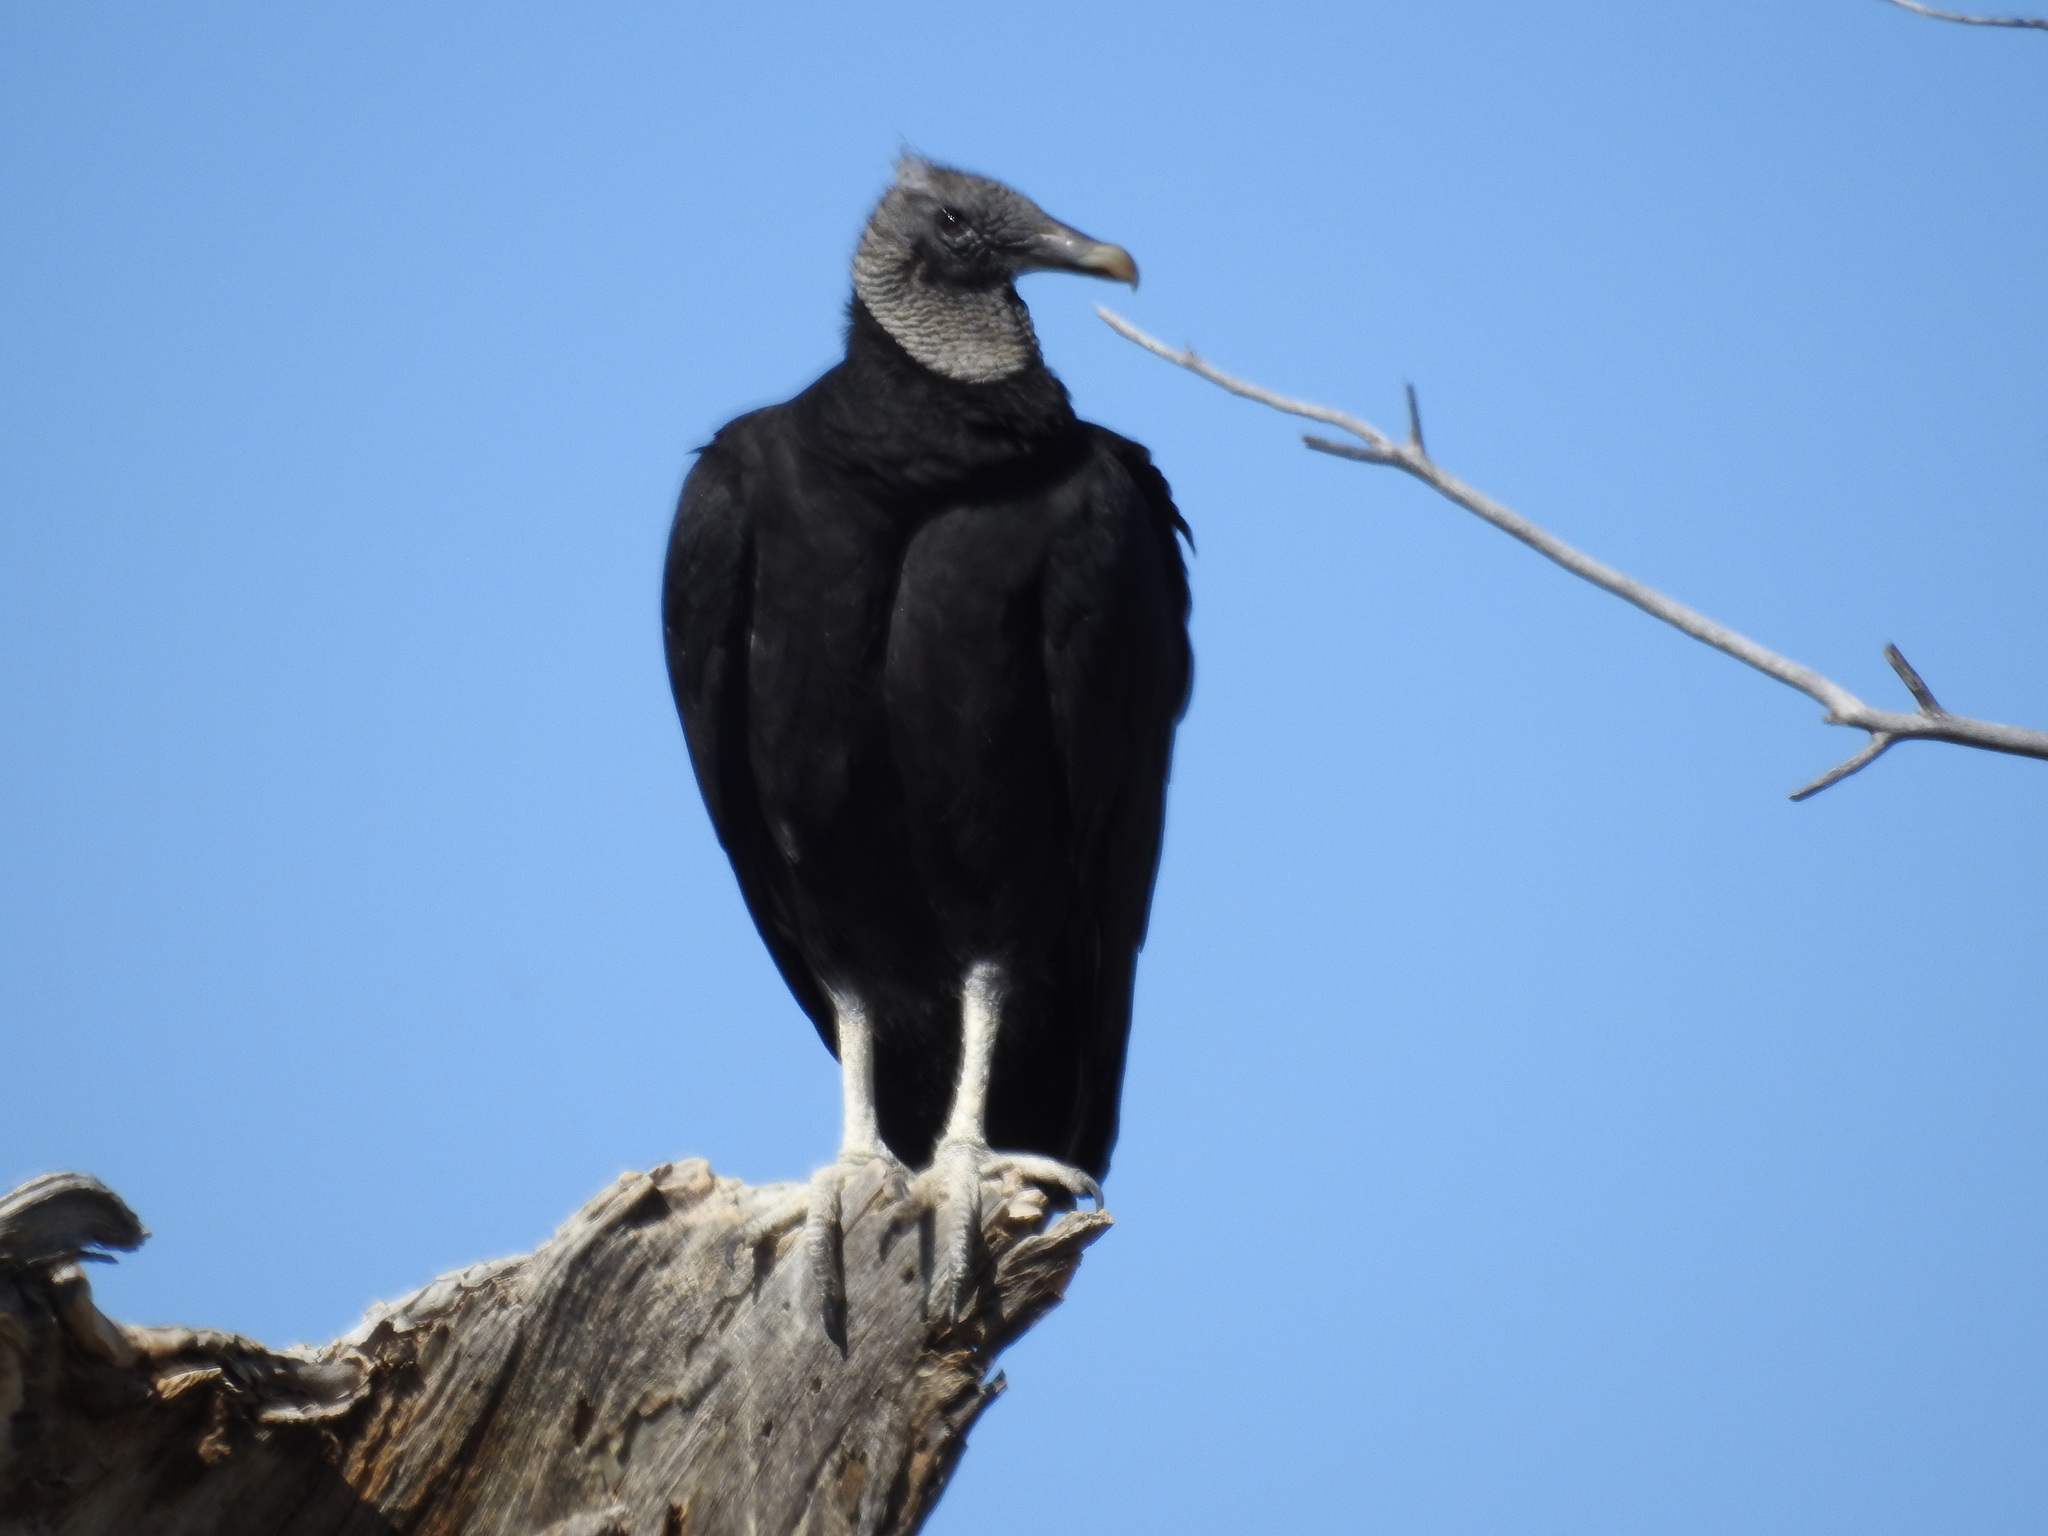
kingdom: Animalia
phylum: Chordata
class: Aves
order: Accipitriformes
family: Cathartidae
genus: Coragyps
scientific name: Coragyps atratus
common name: Black vulture
